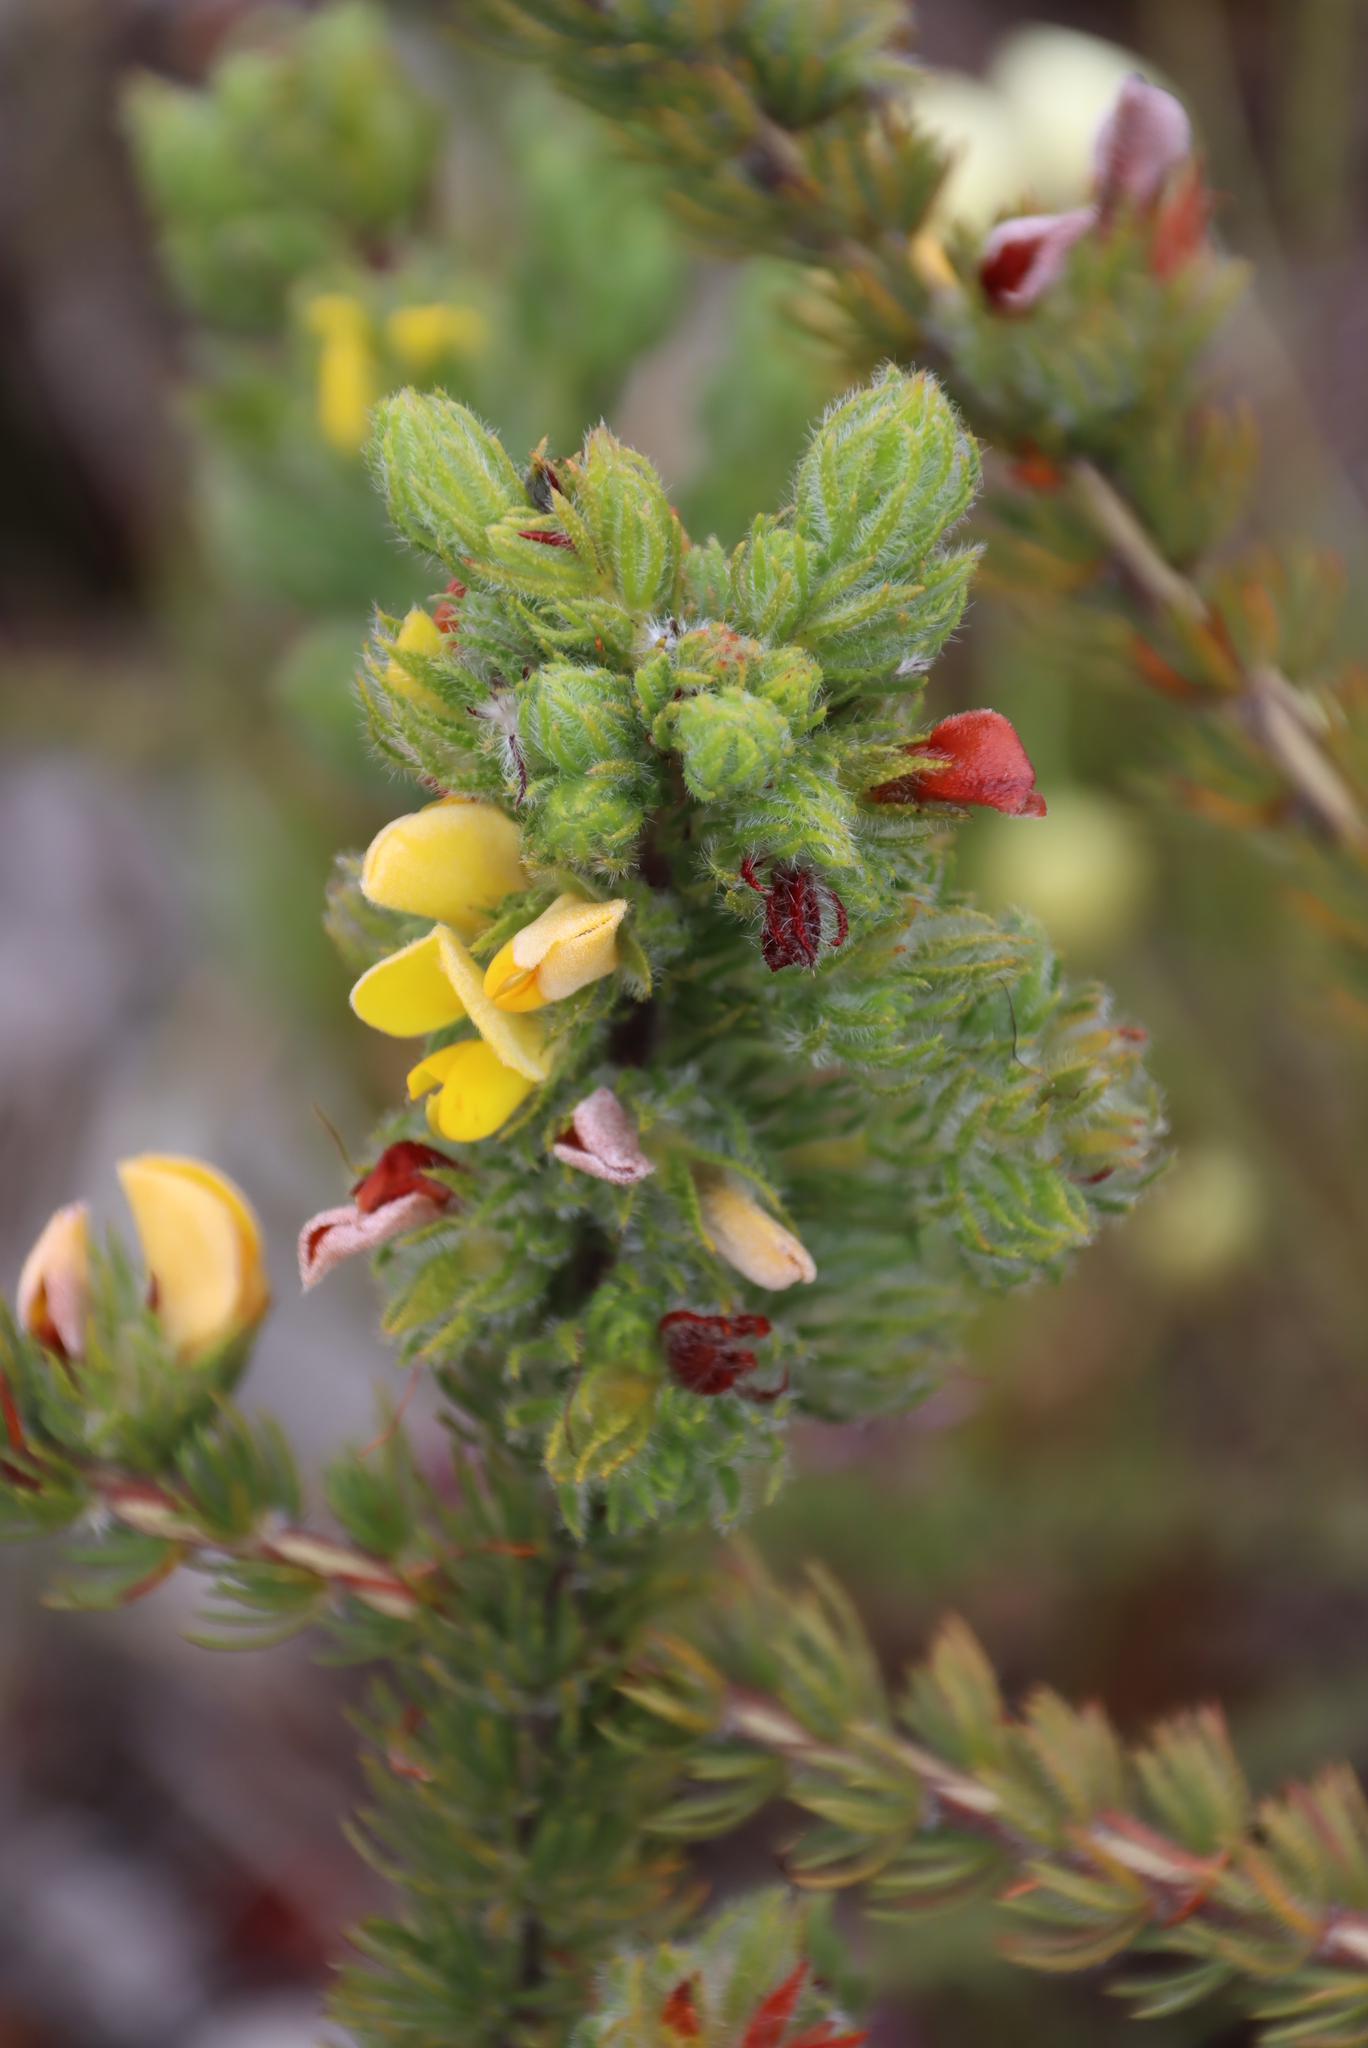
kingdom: Plantae
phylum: Tracheophyta
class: Magnoliopsida
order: Fabales
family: Fabaceae
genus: Aspalathus
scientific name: Aspalathus ciliaris
